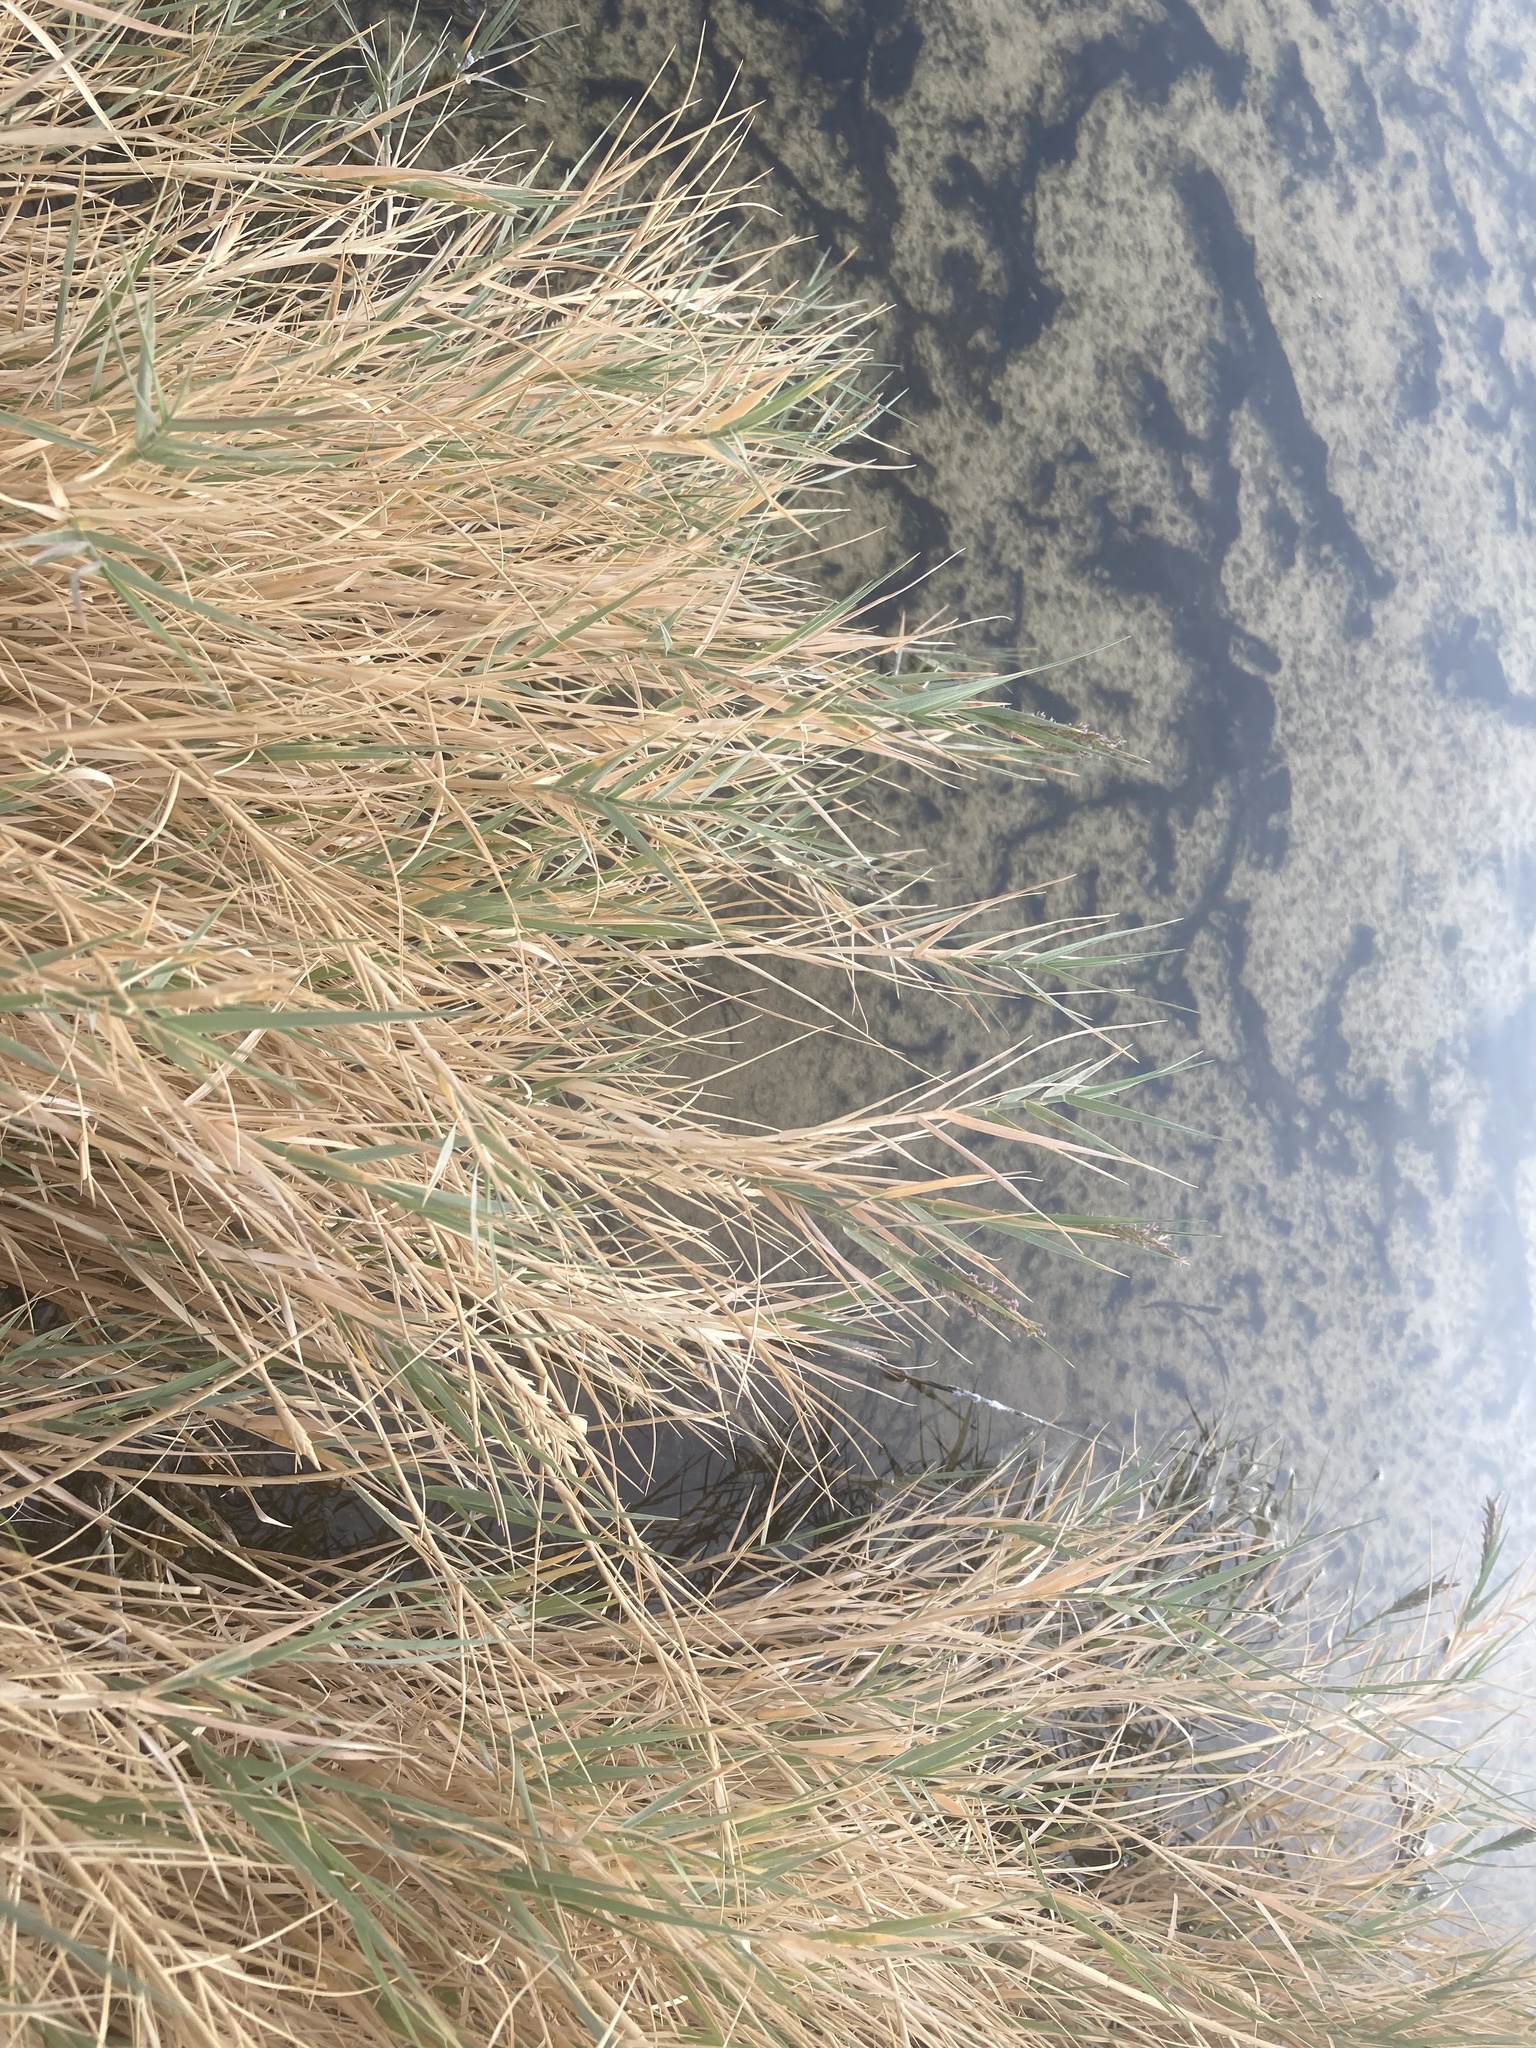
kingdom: Plantae
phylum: Tracheophyta
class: Liliopsida
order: Poales
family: Poaceae
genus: Distichlis
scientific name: Distichlis spicata
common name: Saltgrass
